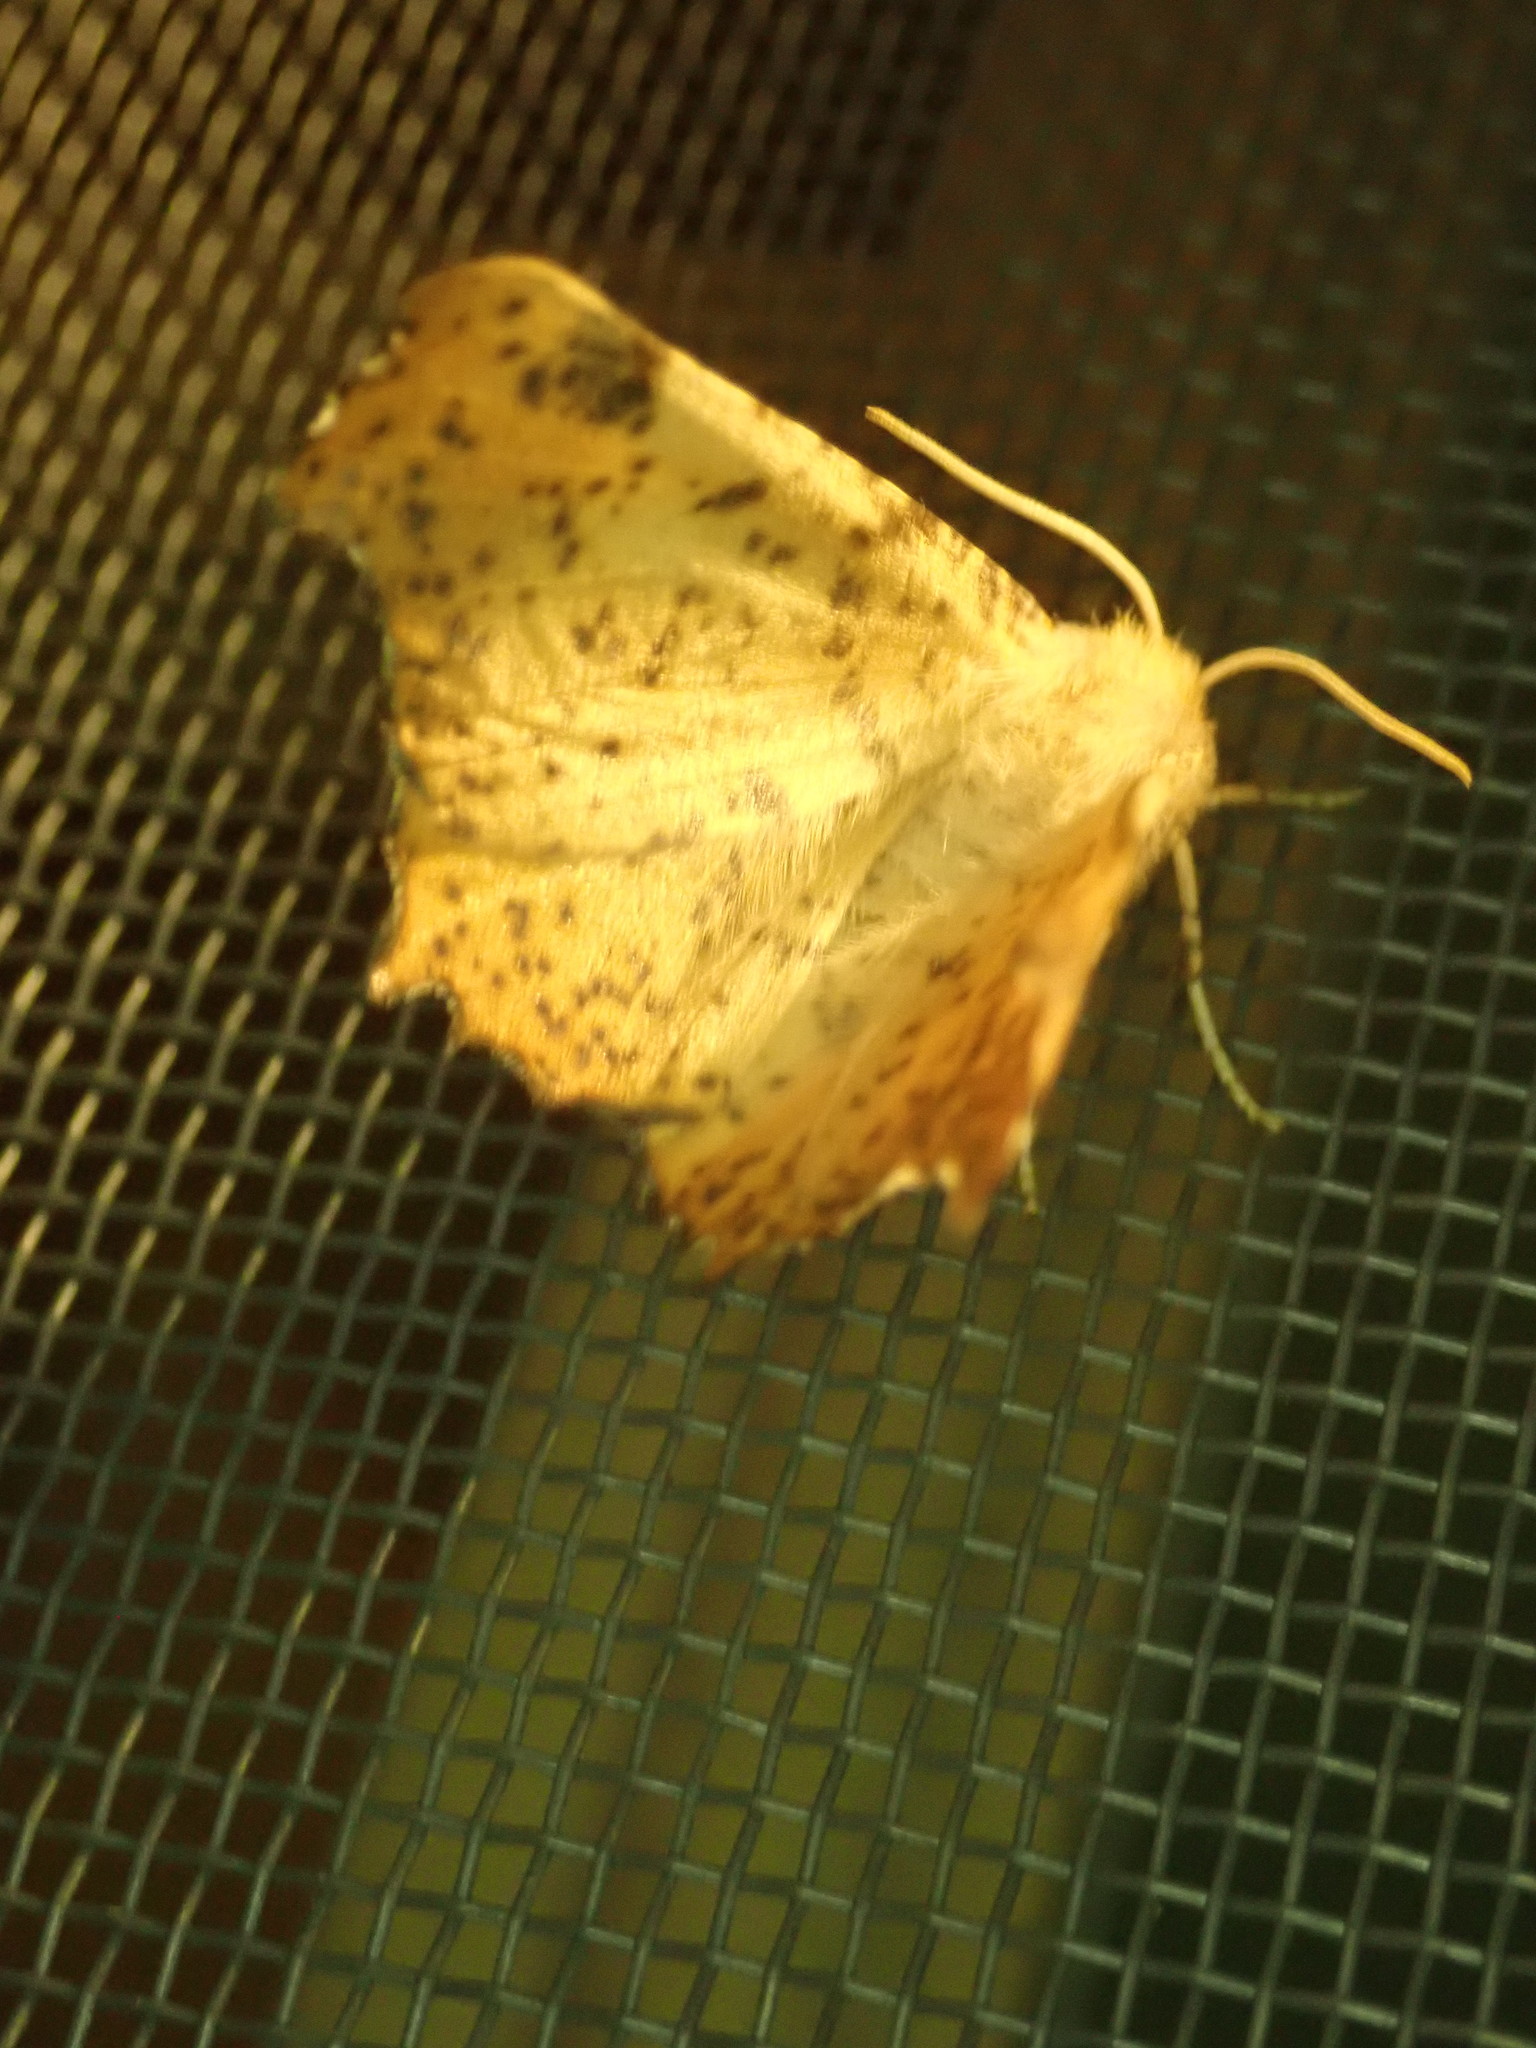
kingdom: Animalia
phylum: Arthropoda
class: Insecta
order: Lepidoptera
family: Geometridae
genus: Ennomos
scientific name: Ennomos magnaria
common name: Maple spanworm
